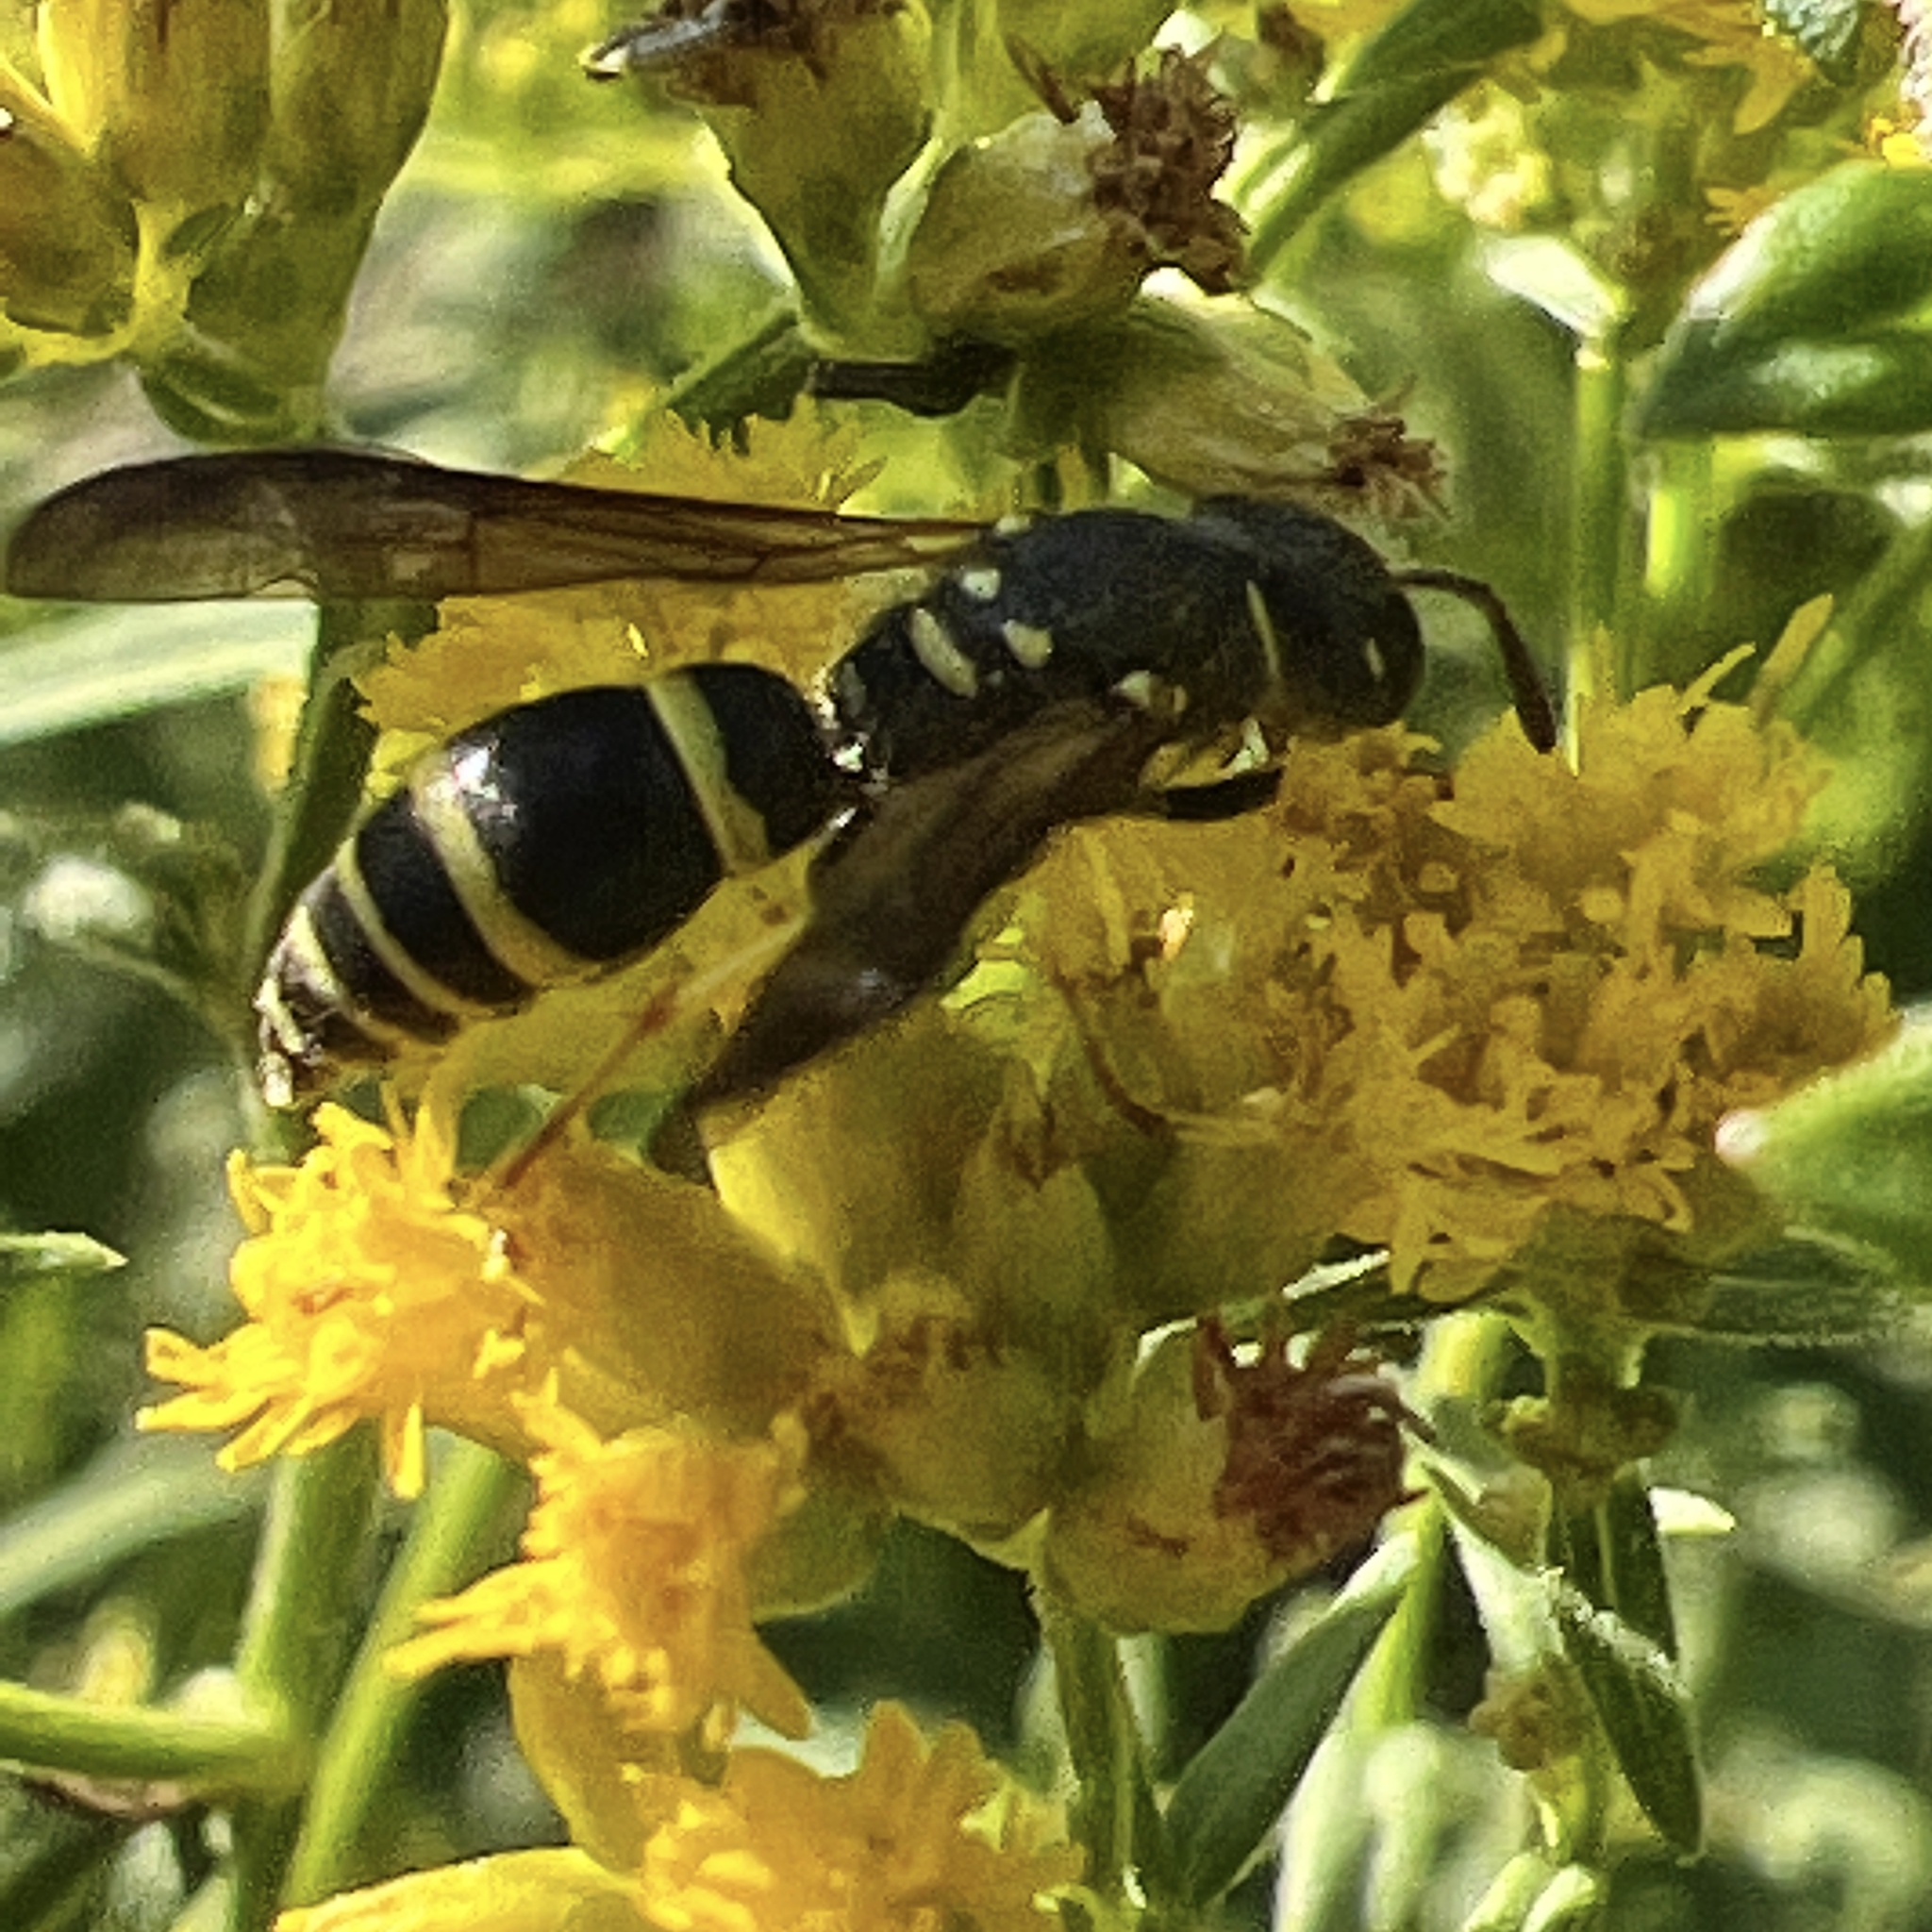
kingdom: Animalia
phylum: Arthropoda
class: Insecta
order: Hymenoptera
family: Vespidae
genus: Ancistrocerus
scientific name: Ancistrocerus adiabatus
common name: Bramble mason wasp
